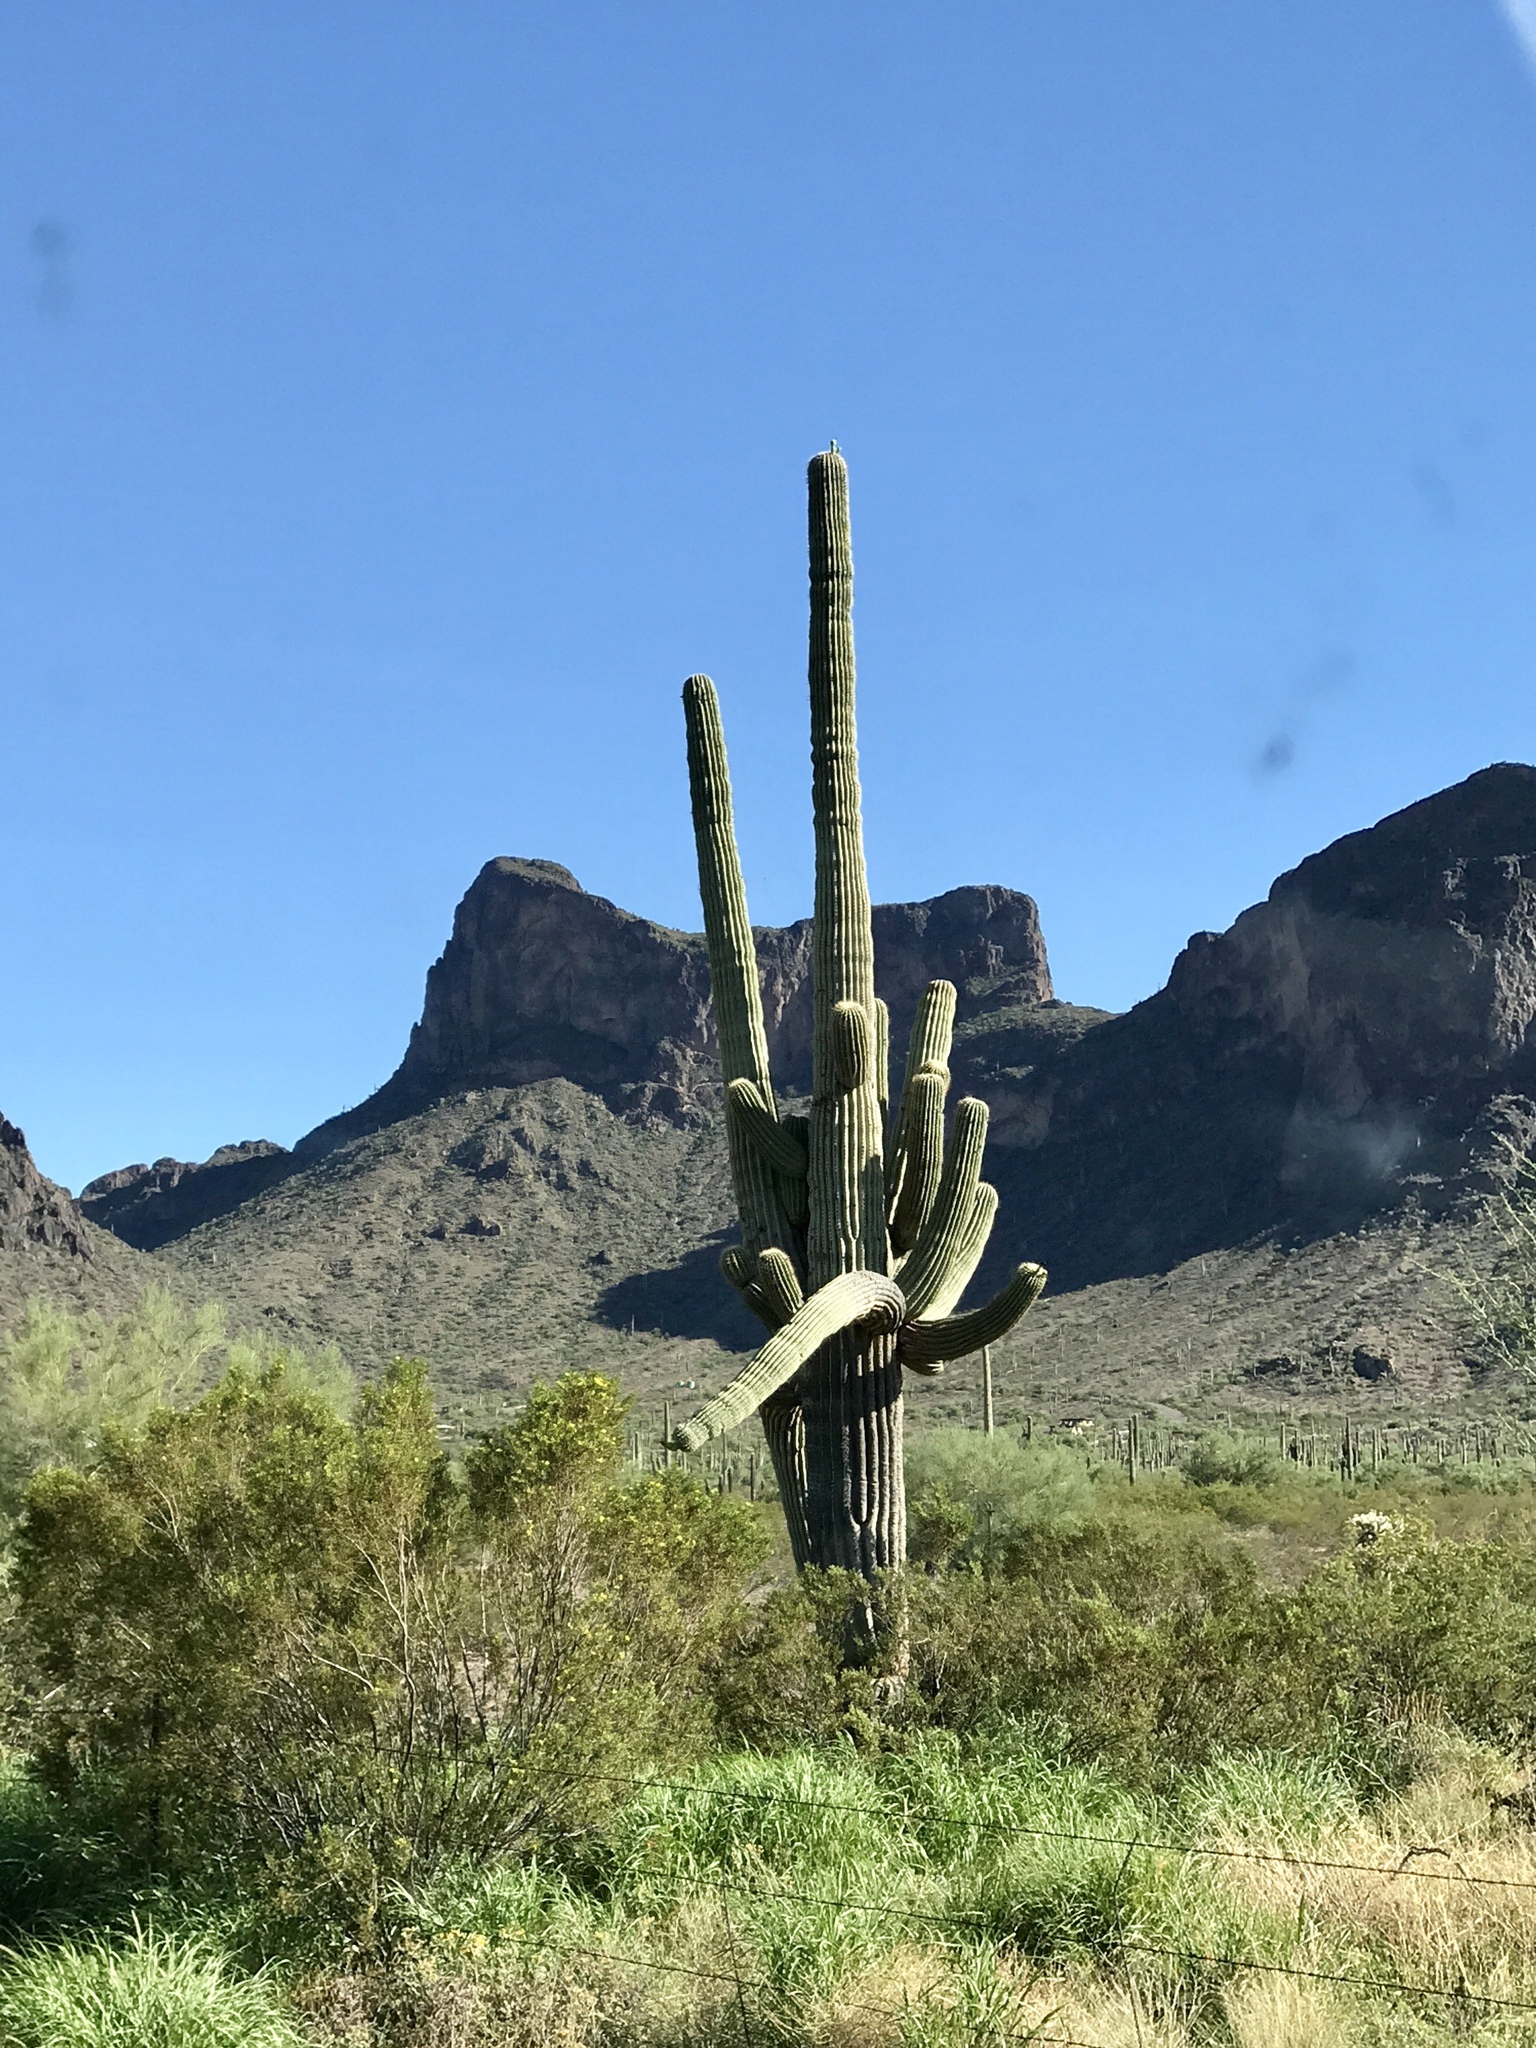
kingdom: Plantae
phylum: Tracheophyta
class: Magnoliopsida
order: Caryophyllales
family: Cactaceae
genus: Carnegiea
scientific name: Carnegiea gigantea
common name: Saguaro
